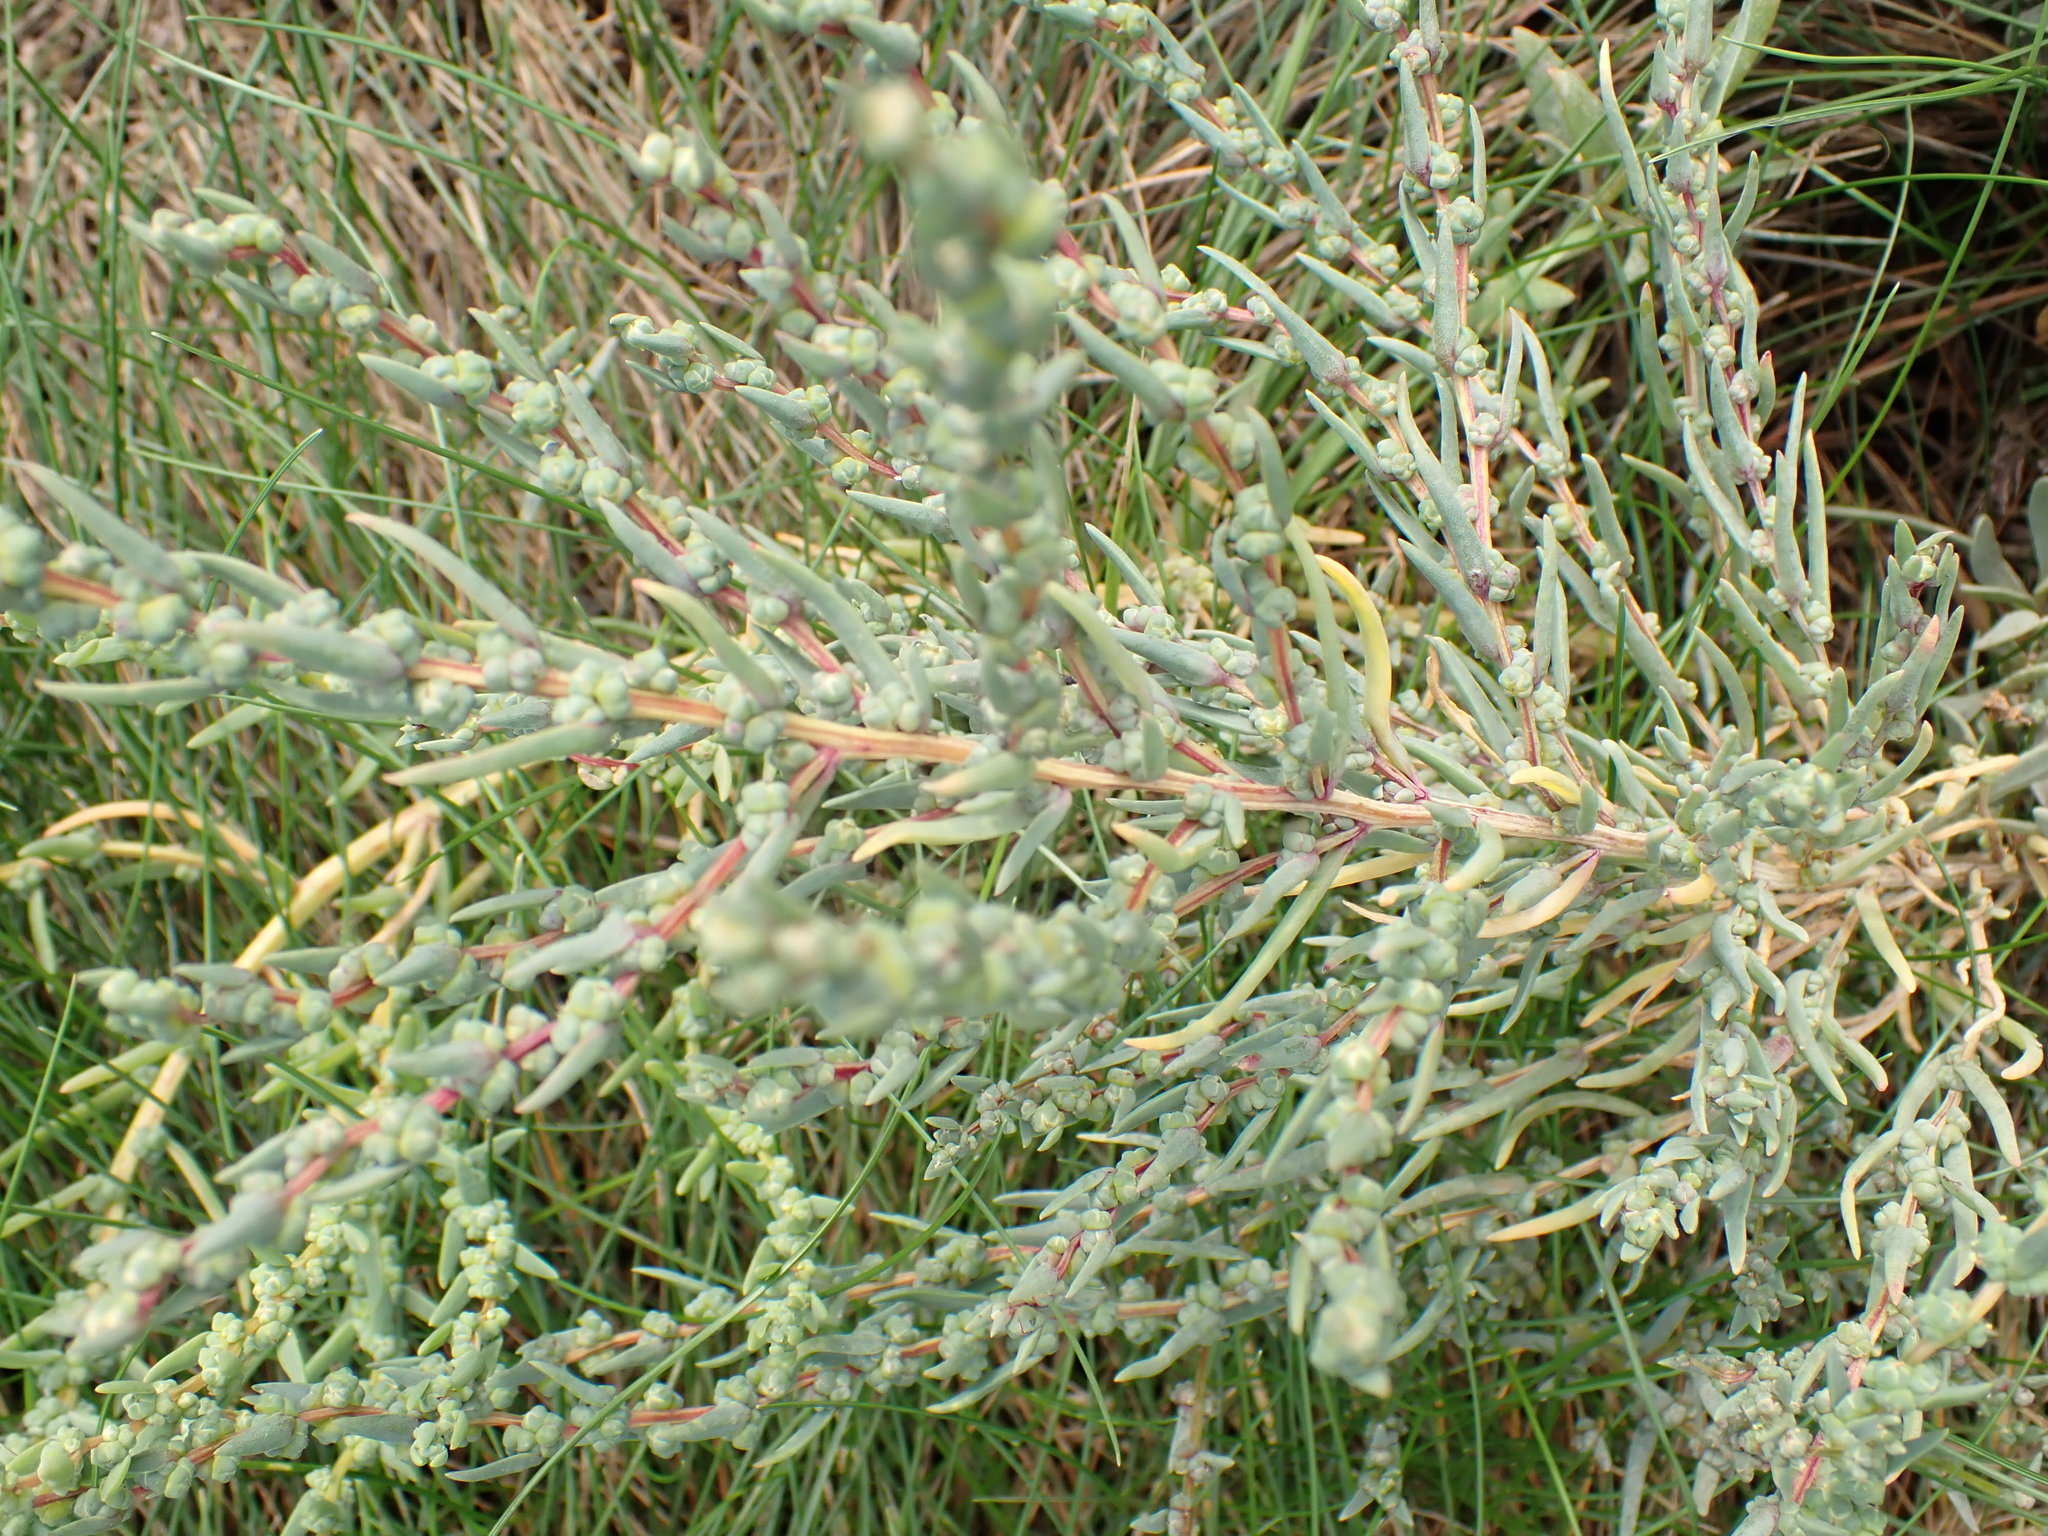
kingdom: Plantae
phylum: Tracheophyta
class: Magnoliopsida
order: Caryophyllales
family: Amaranthaceae
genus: Suaeda
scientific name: Suaeda maritima
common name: Annual sea-blite
